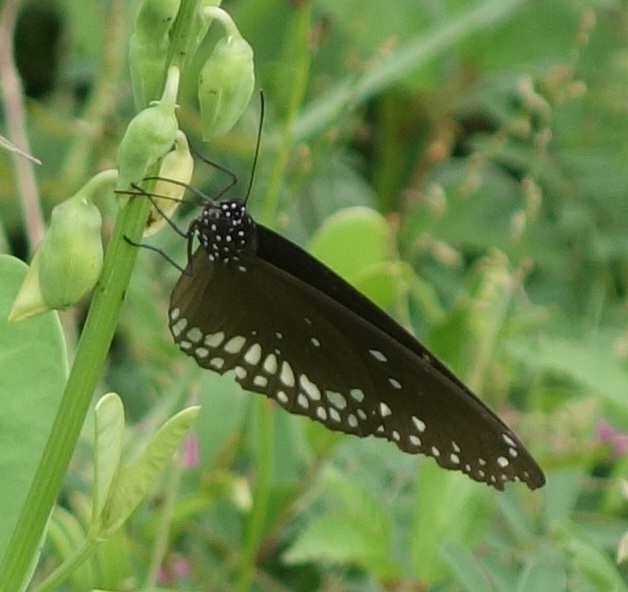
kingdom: Animalia
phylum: Arthropoda
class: Insecta
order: Lepidoptera
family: Nymphalidae
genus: Euploea
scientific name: Euploea core
